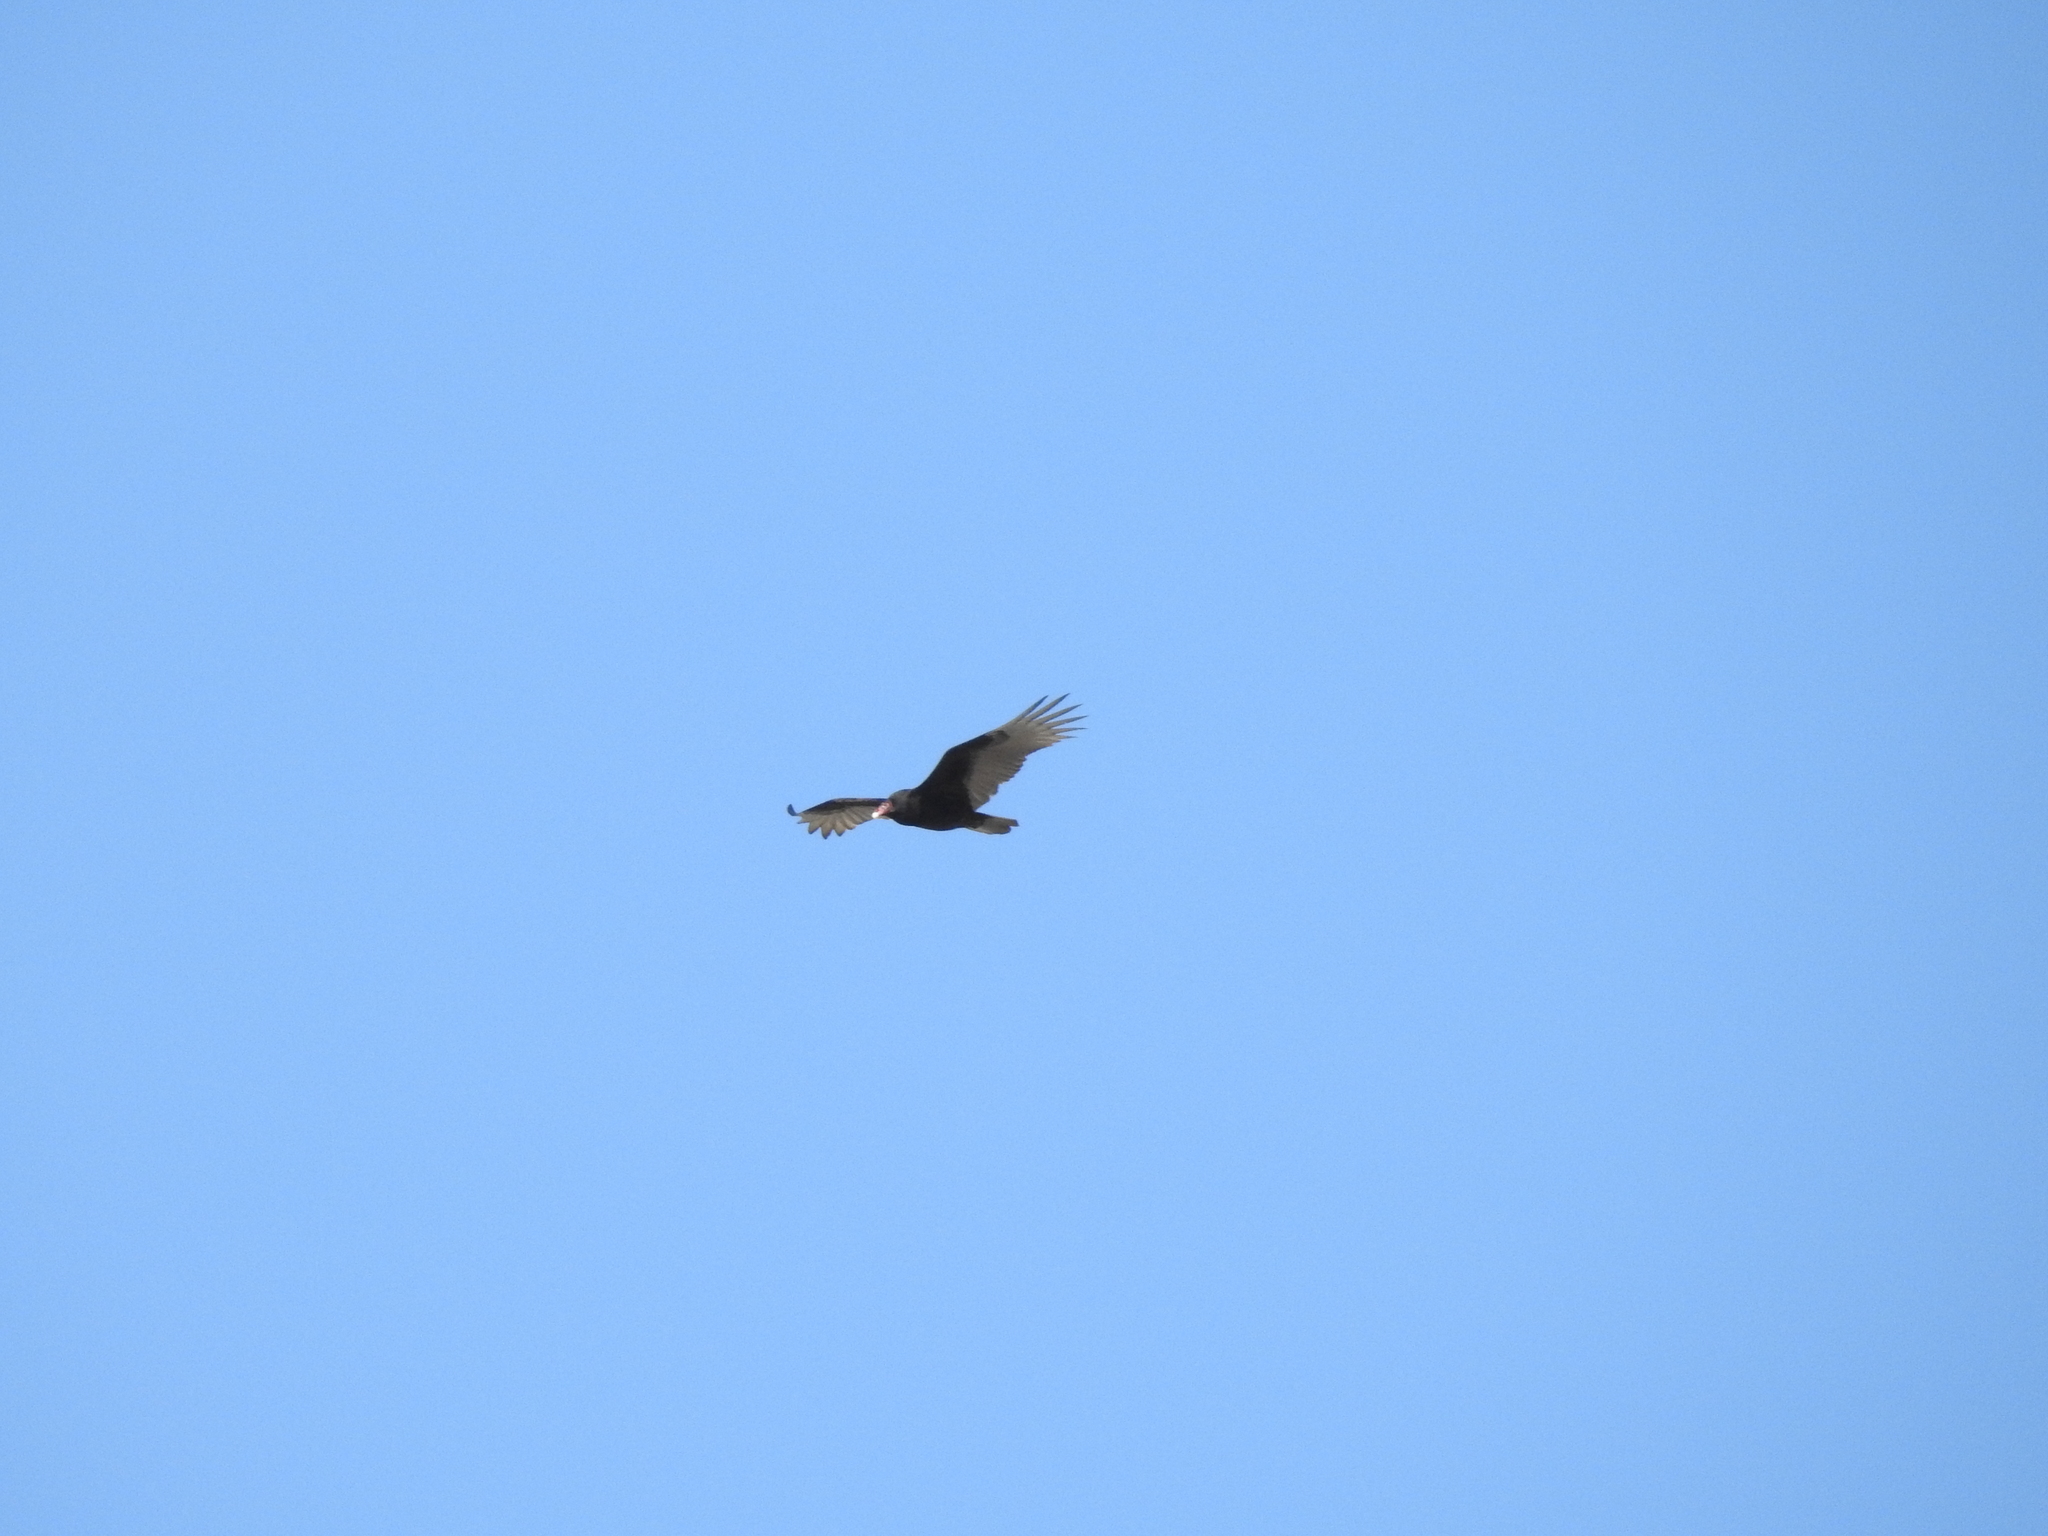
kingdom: Animalia
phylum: Chordata
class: Aves
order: Accipitriformes
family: Cathartidae
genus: Cathartes
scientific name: Cathartes aura
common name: Turkey vulture
